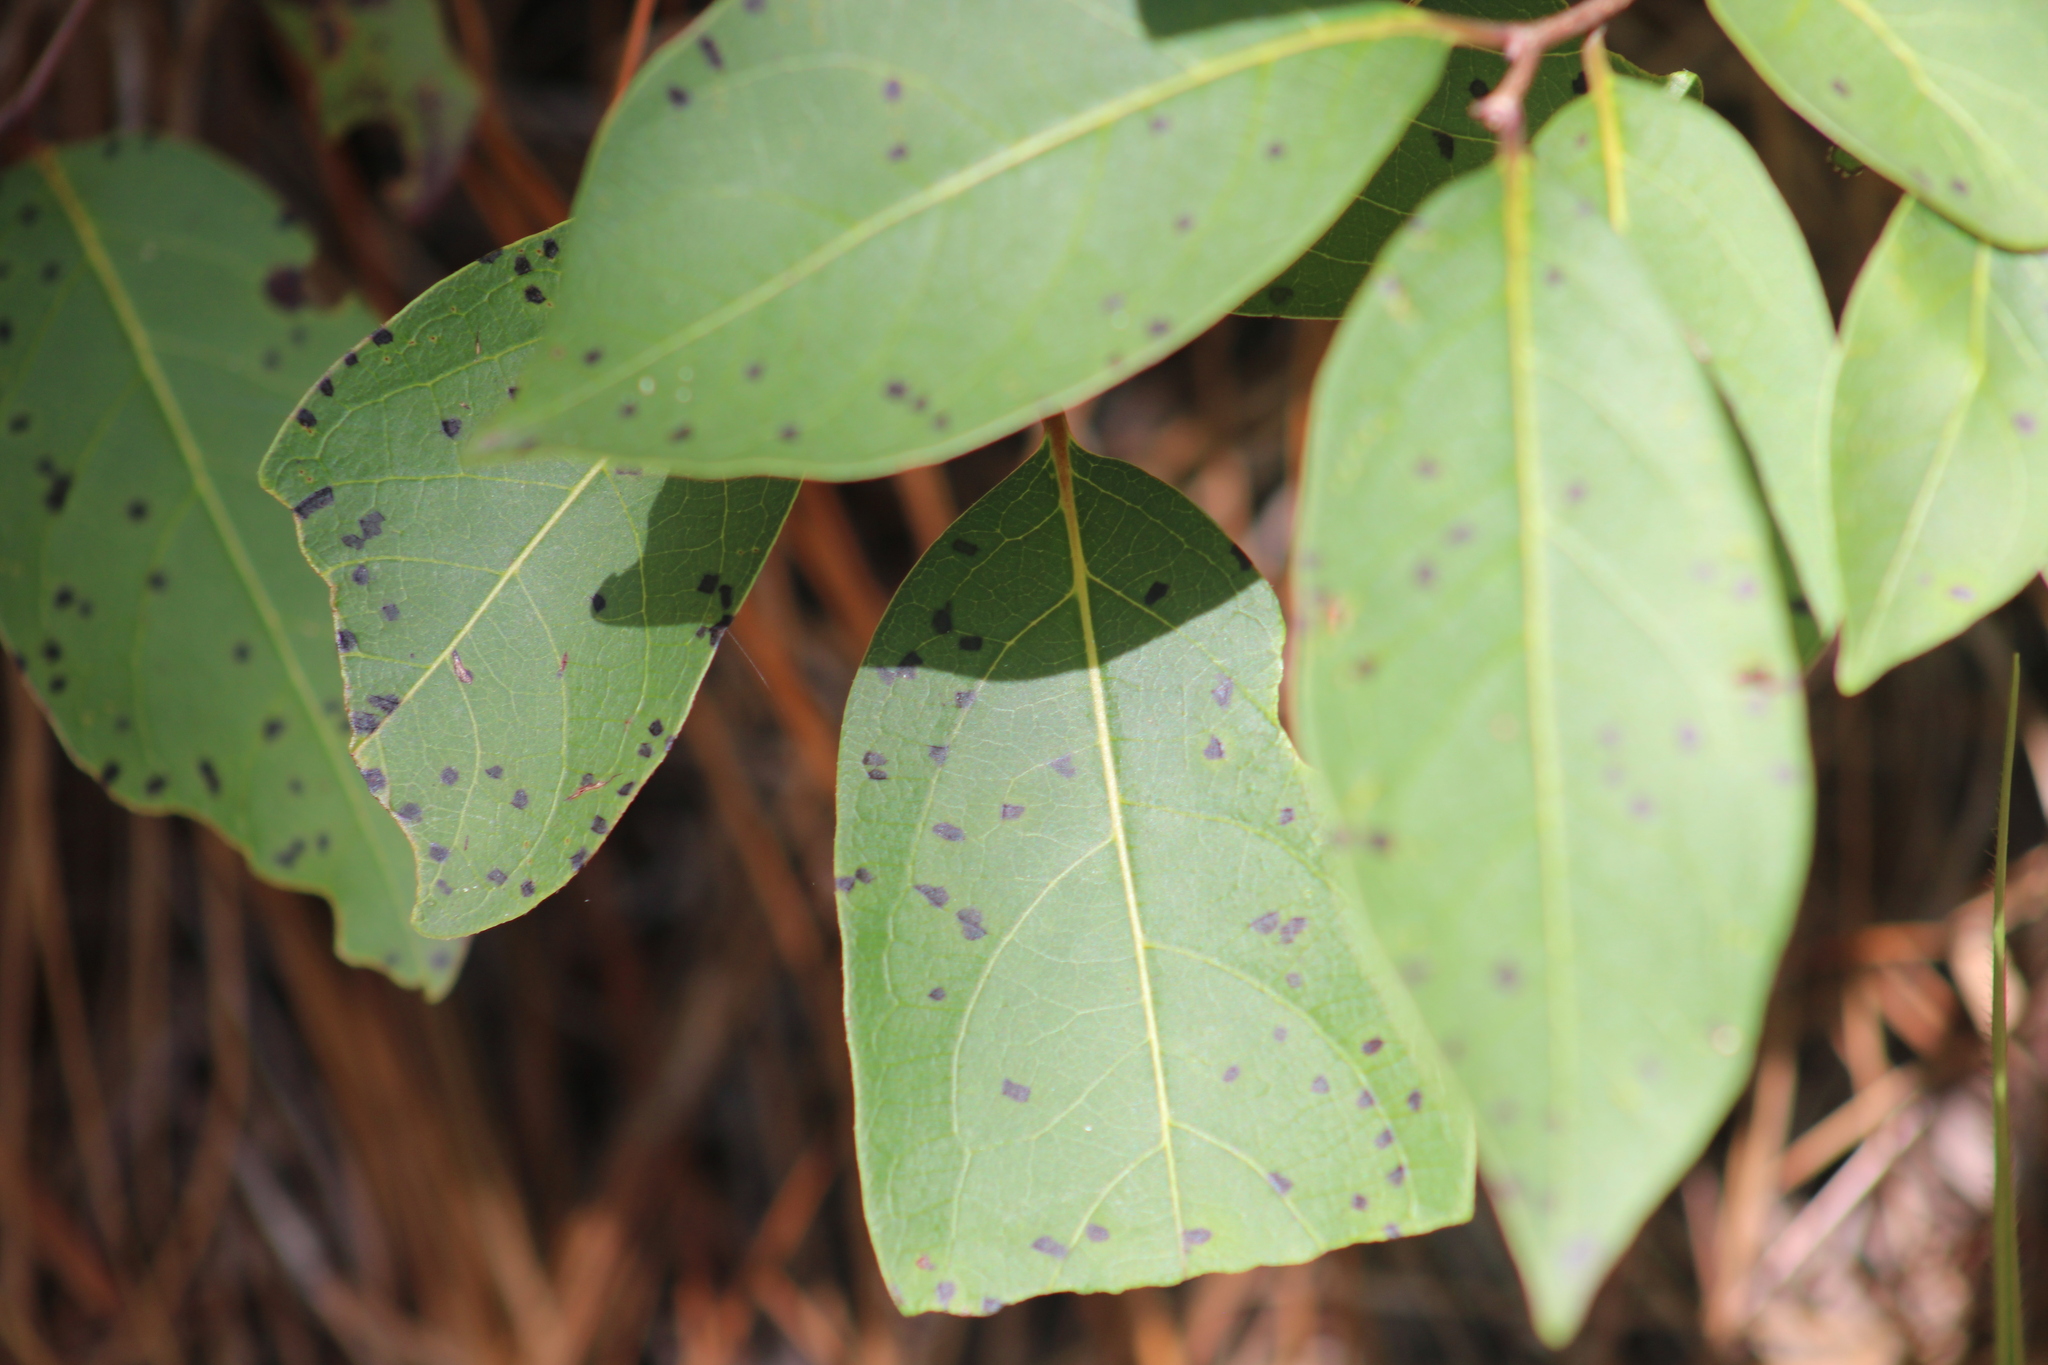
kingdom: Plantae
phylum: Tracheophyta
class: Magnoliopsida
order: Ericales
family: Ebenaceae
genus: Diospyros
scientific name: Diospyros virginiana
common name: Persimmon
